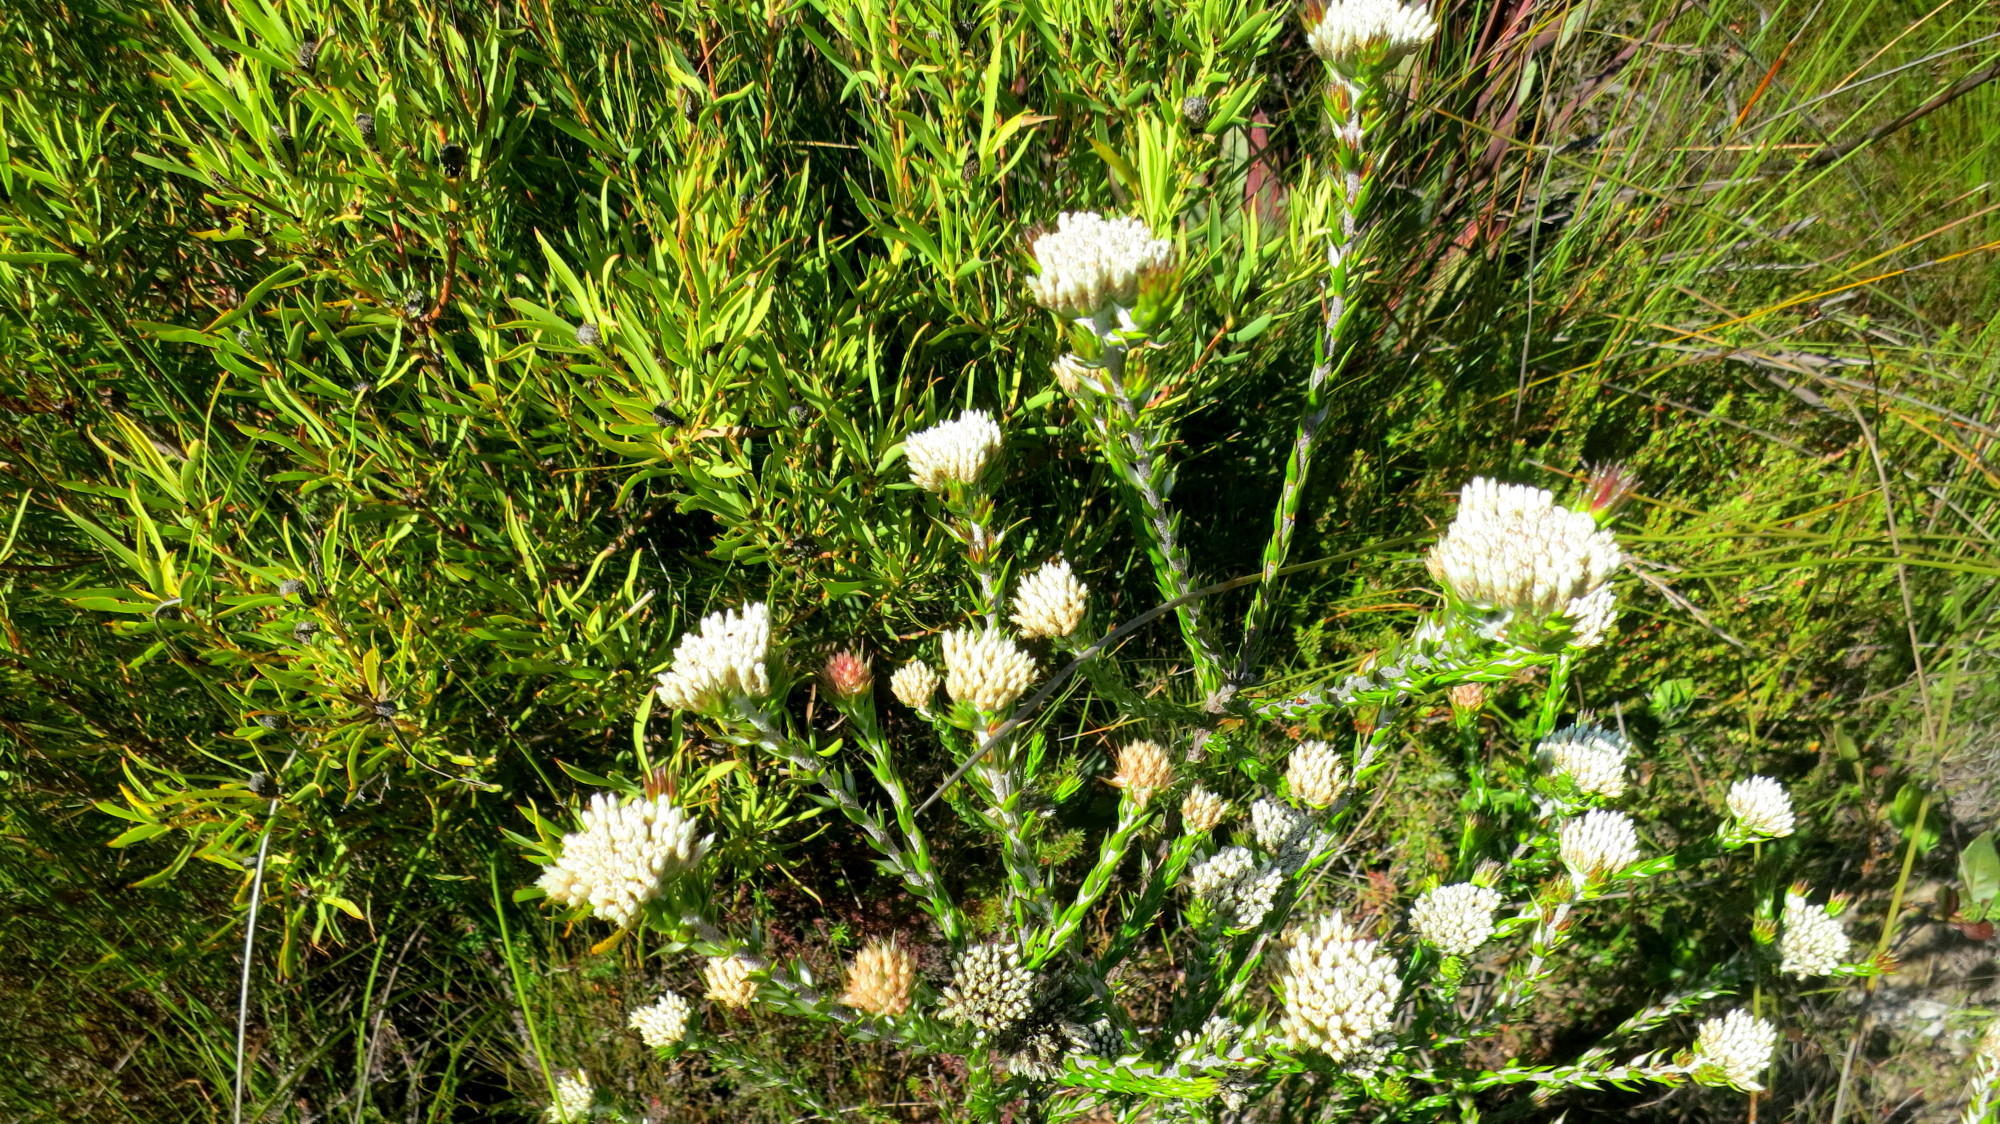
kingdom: Plantae
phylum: Tracheophyta
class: Magnoliopsida
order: Asterales
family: Asteraceae
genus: Metalasia
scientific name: Metalasia pulcherrima
